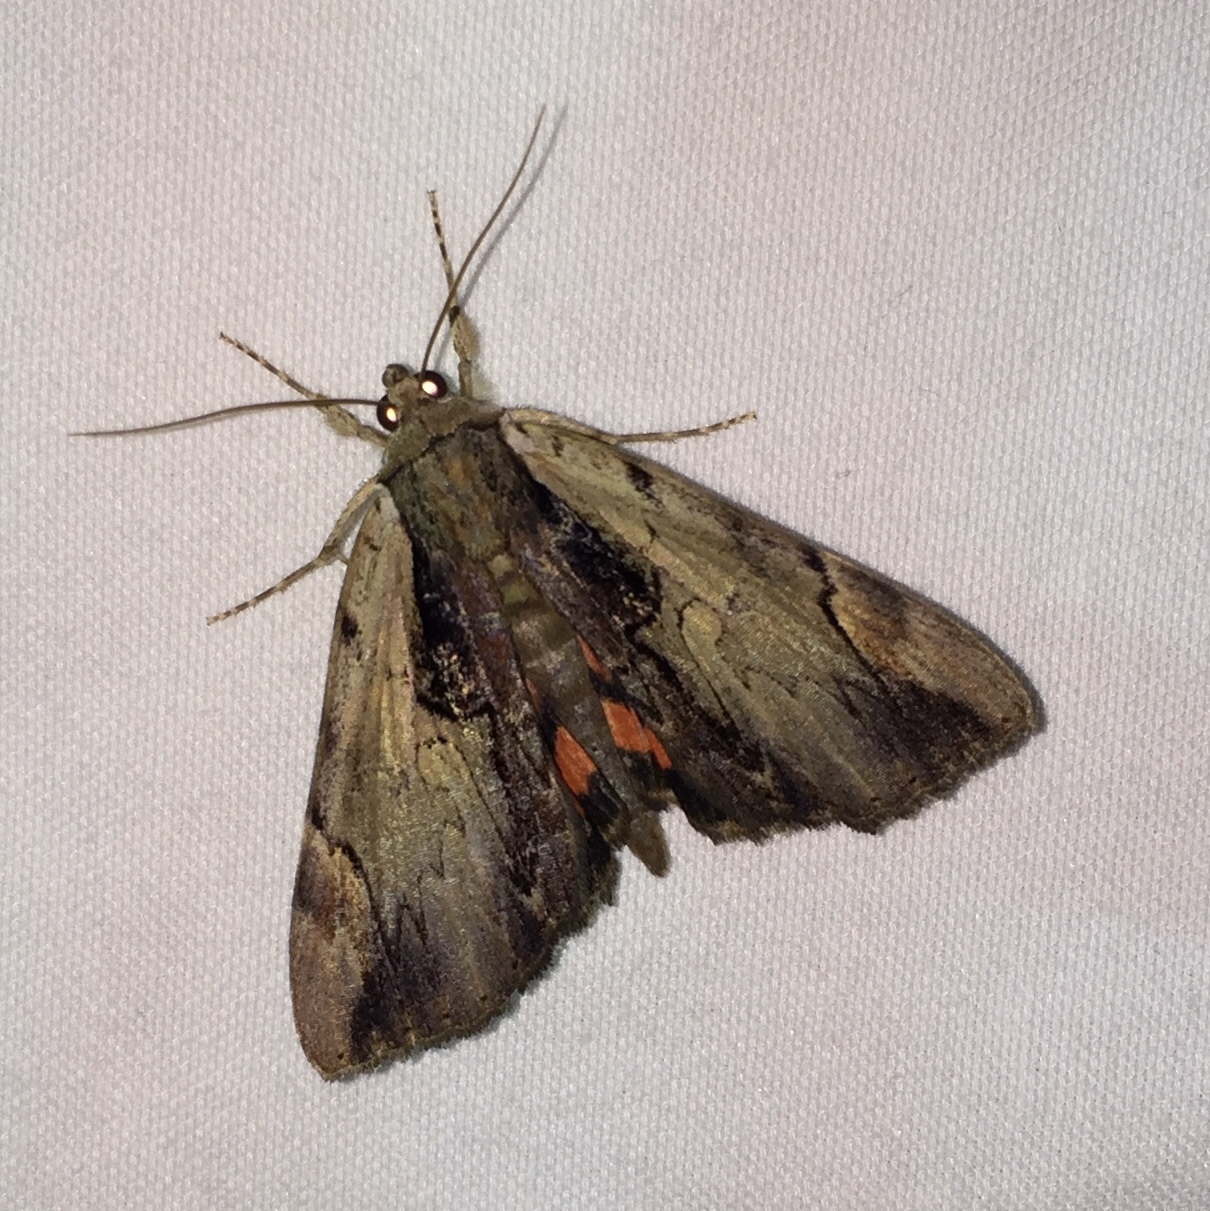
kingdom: Animalia
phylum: Arthropoda
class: Insecta
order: Lepidoptera
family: Erebidae
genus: Catocala
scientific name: Catocala ultronia
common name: Ultronia underwing
